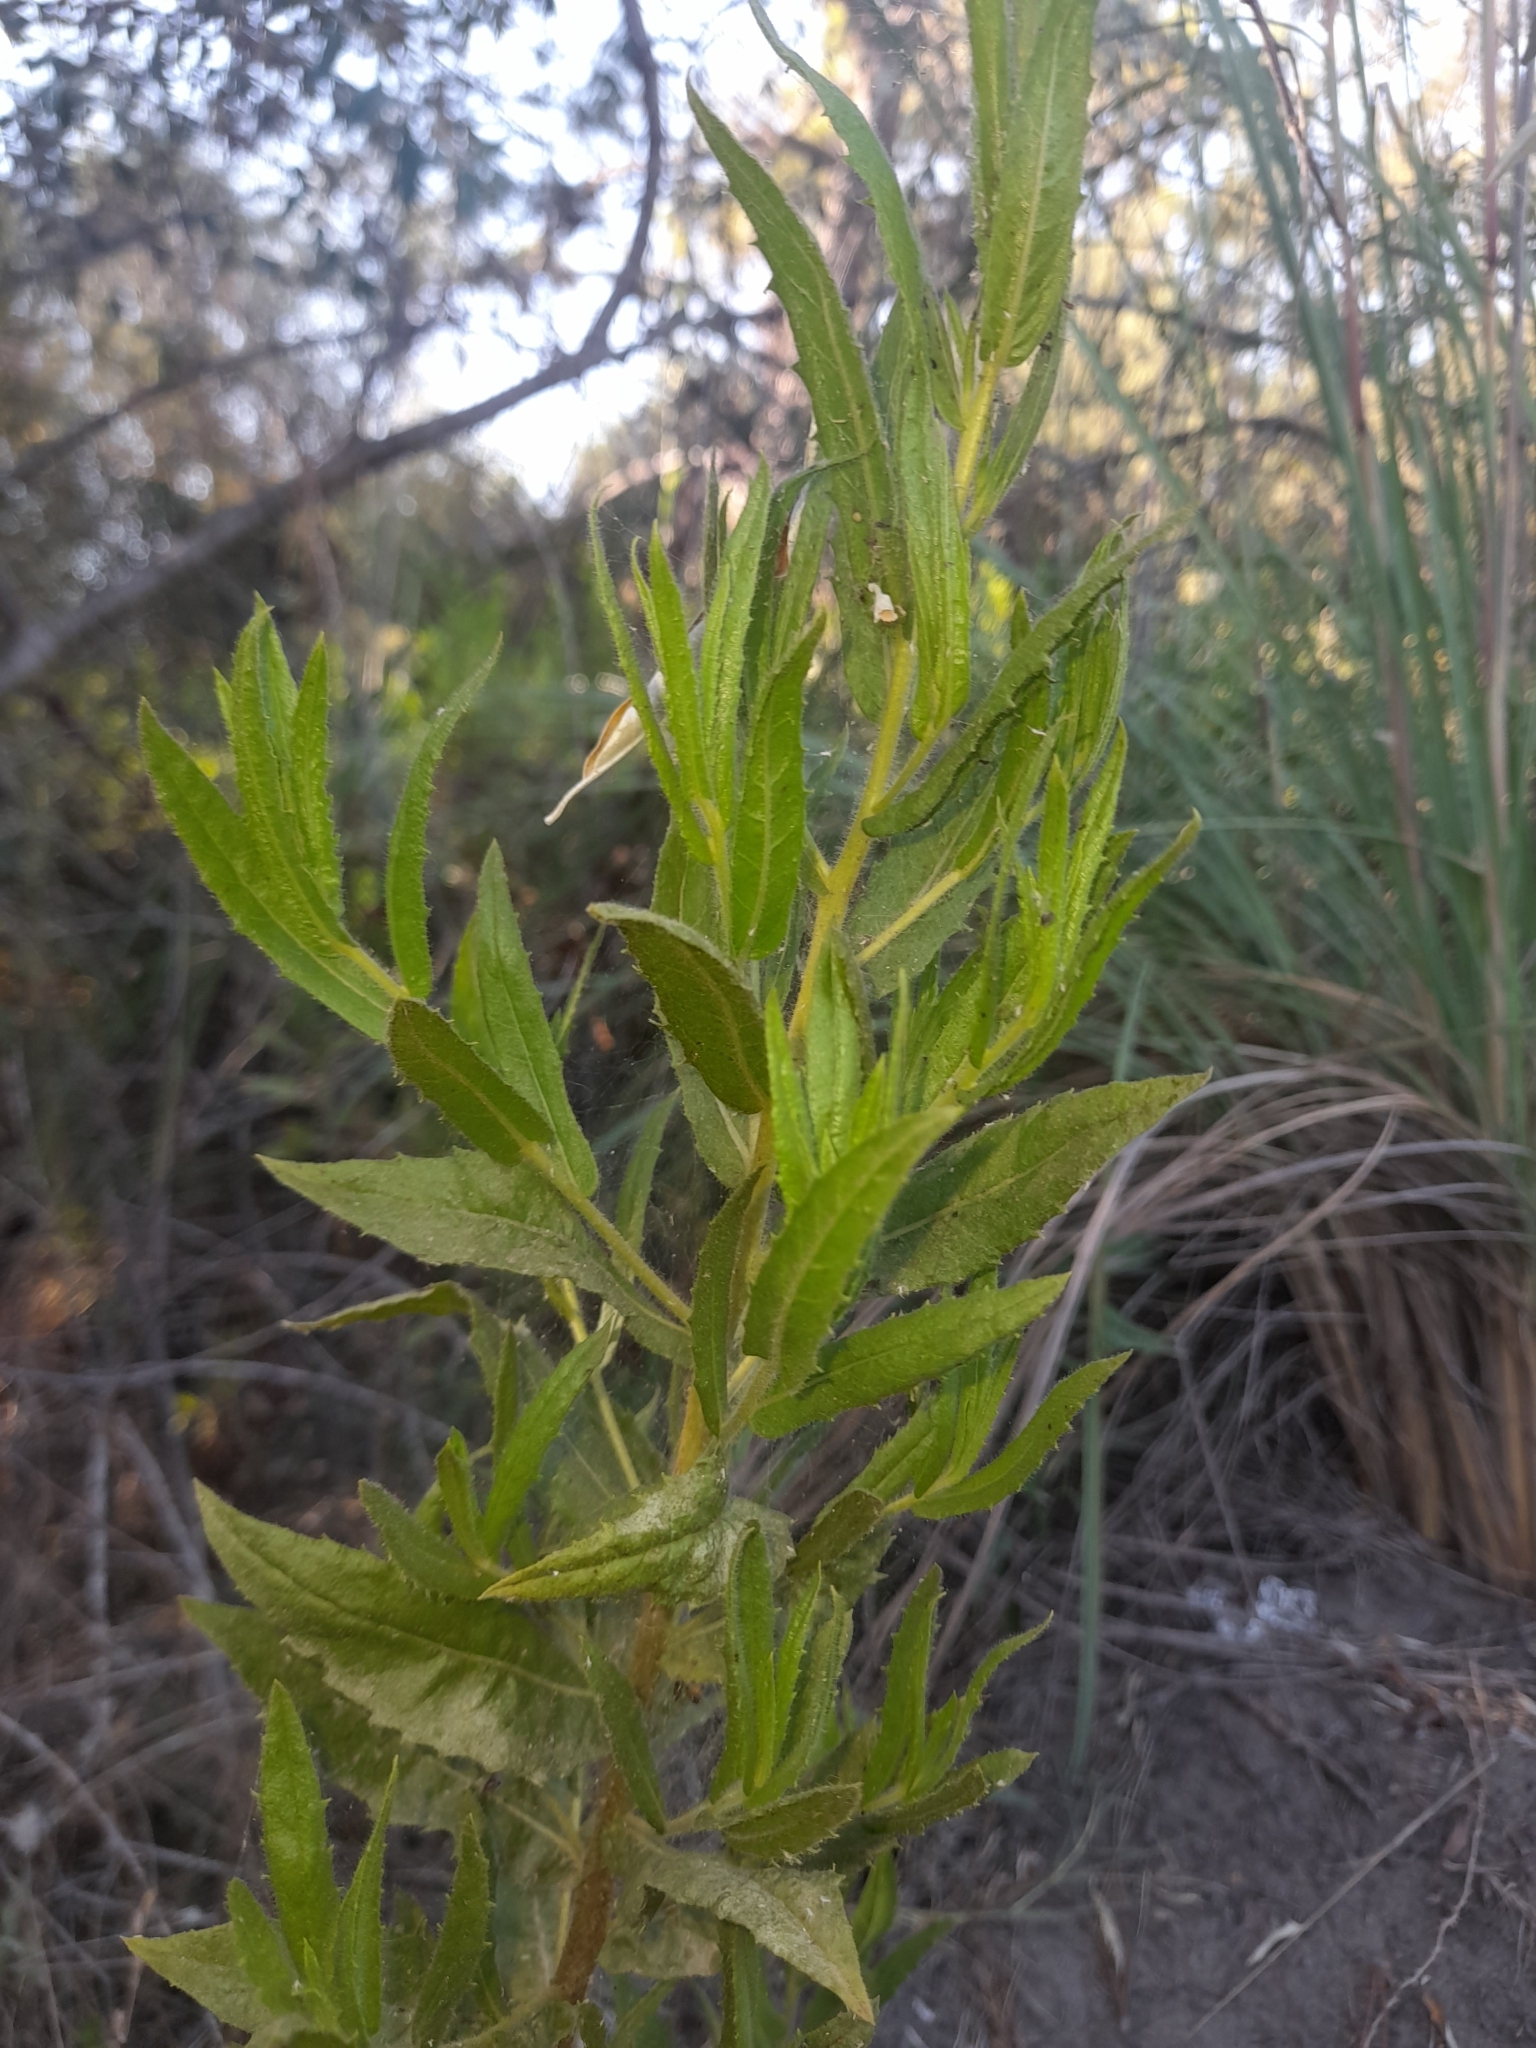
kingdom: Plantae
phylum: Tracheophyta
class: Magnoliopsida
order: Asterales
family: Asteraceae
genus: Dittrichia
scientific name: Dittrichia viscosa
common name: Woody fleabane
